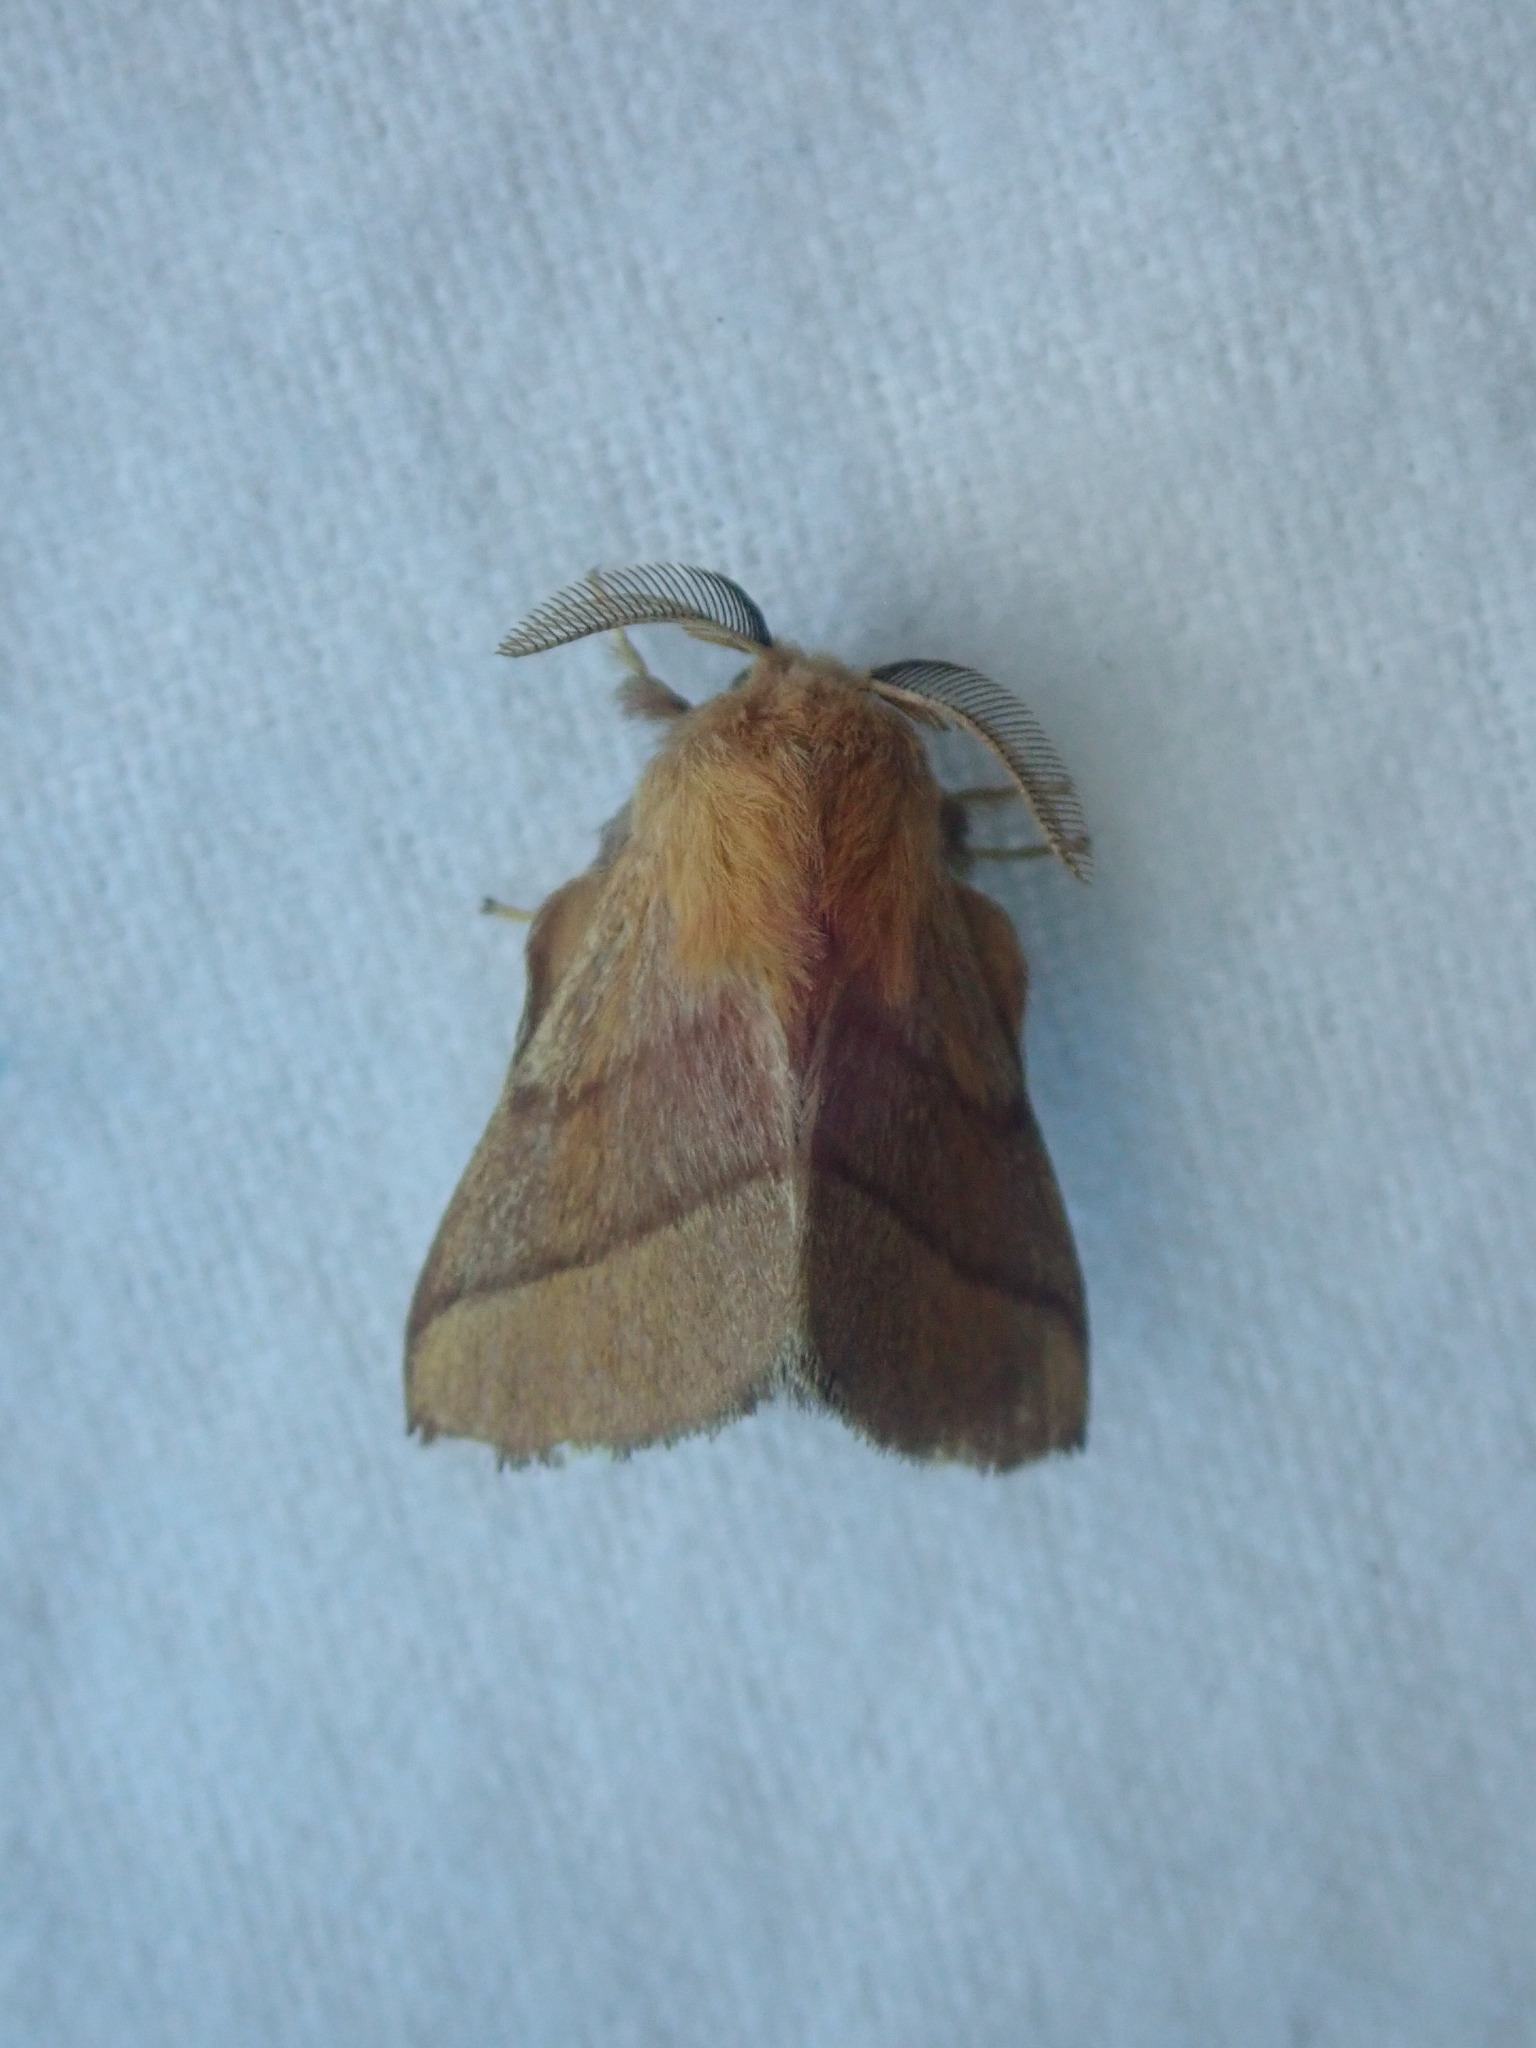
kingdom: Animalia
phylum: Arthropoda
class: Insecta
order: Lepidoptera
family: Lasiocampidae
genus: Malacosoma
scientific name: Malacosoma disstria
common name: Forest tent caterpillar
